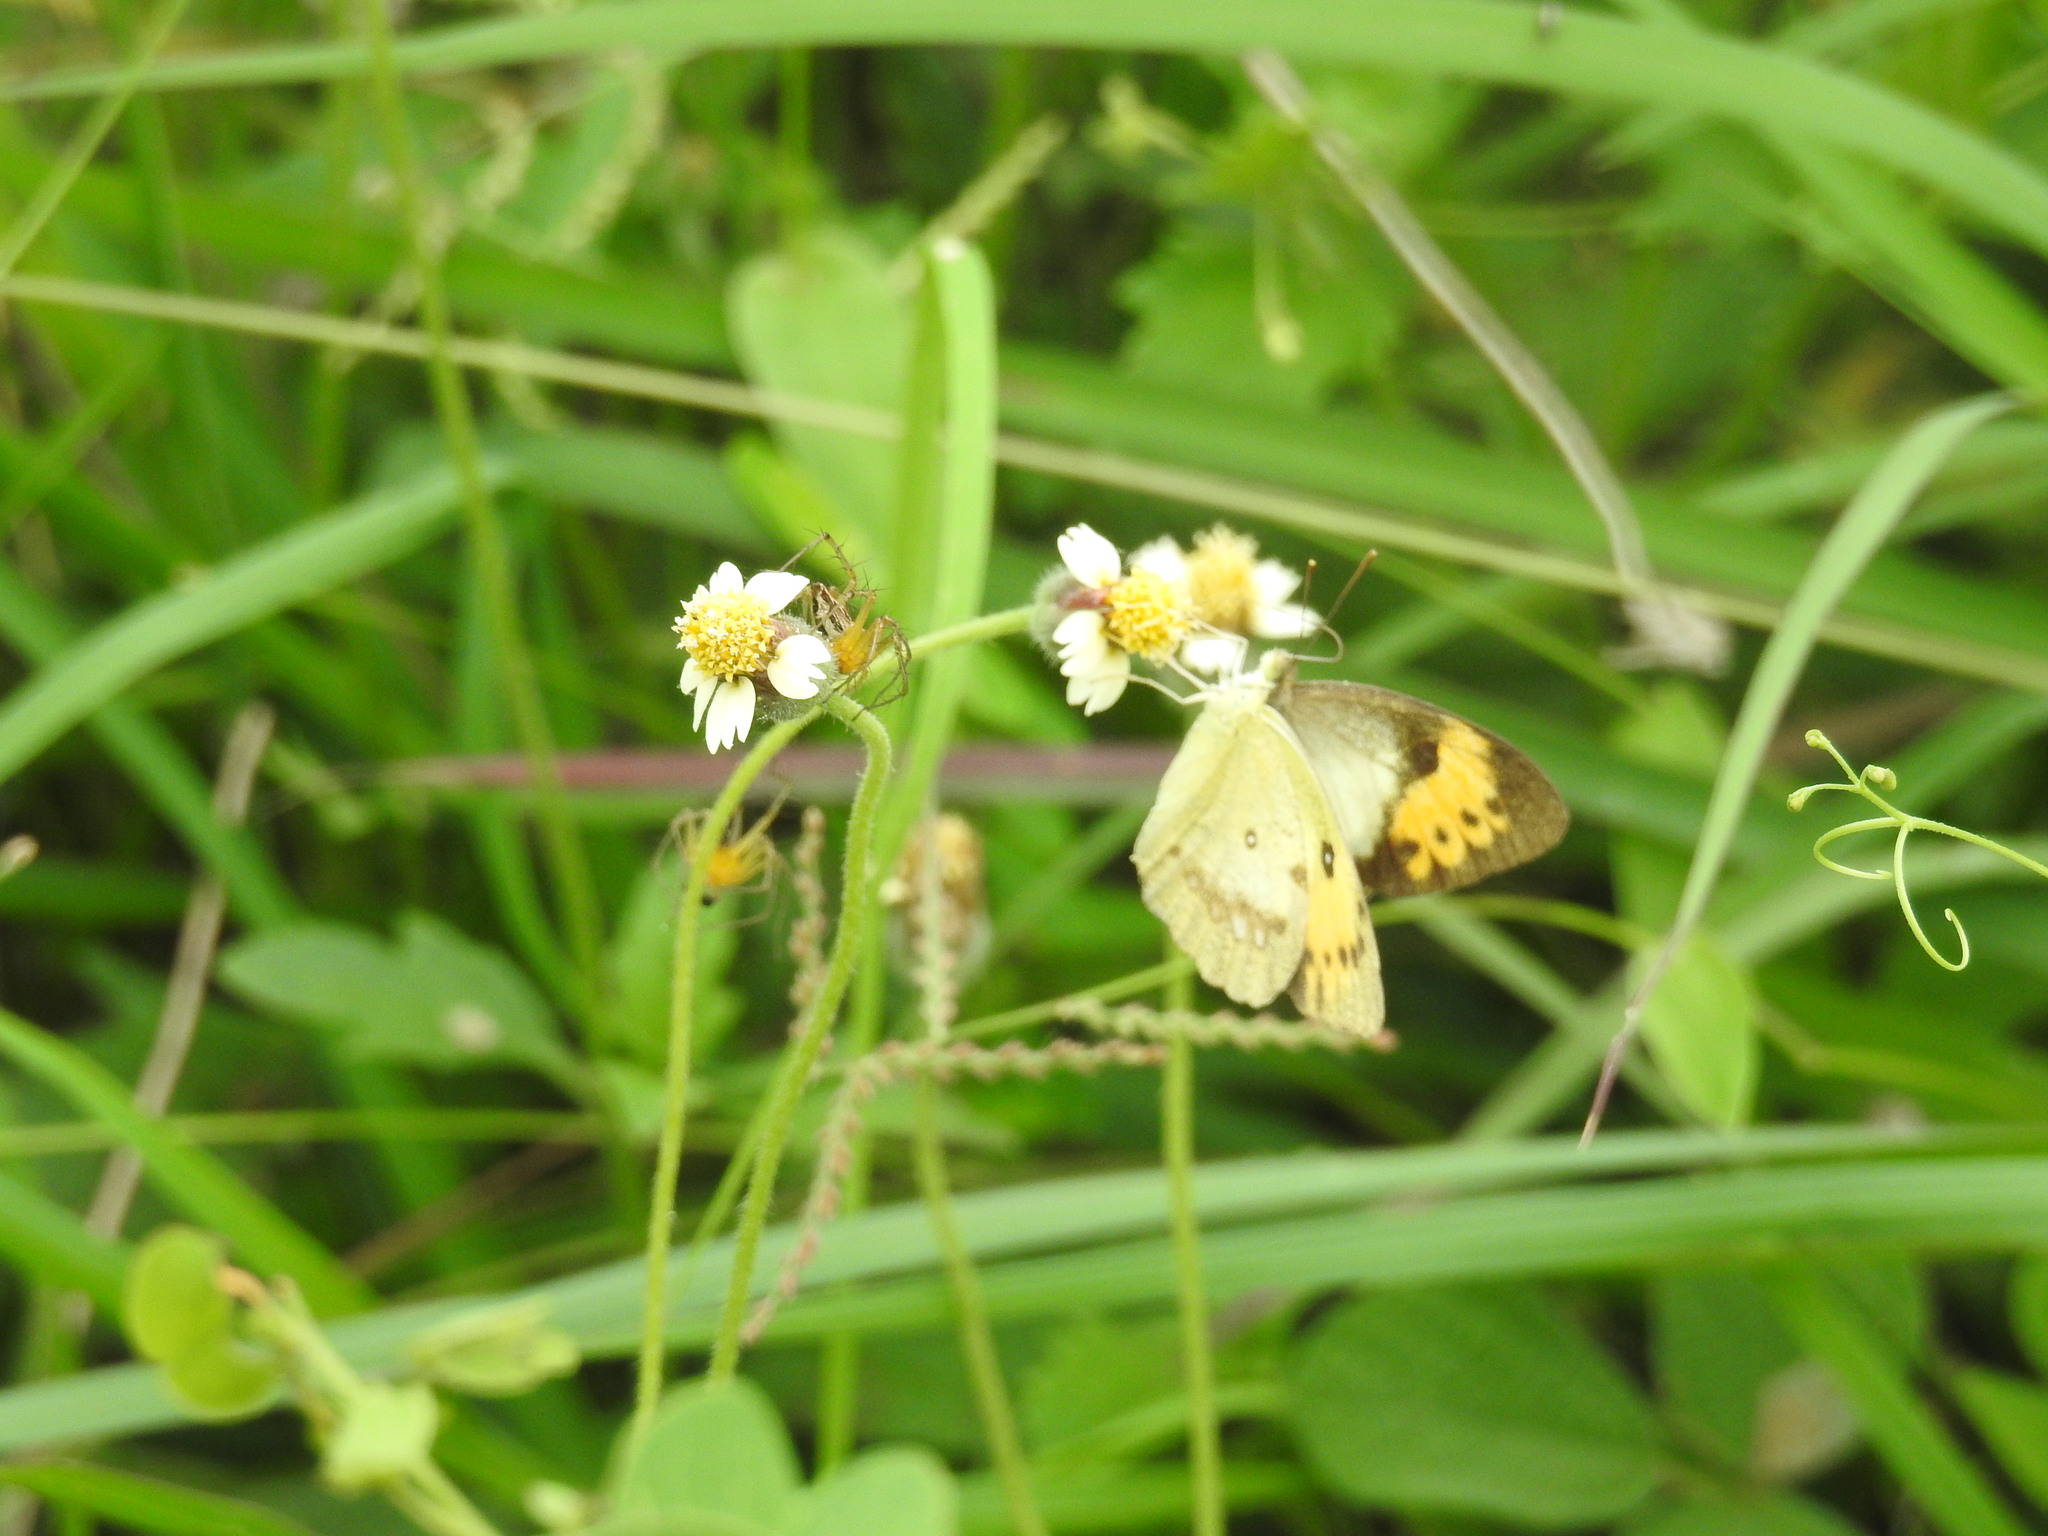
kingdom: Animalia
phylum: Arthropoda
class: Insecta
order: Lepidoptera
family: Pieridae
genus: Ixias
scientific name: Ixias marianne
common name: White orange tip
